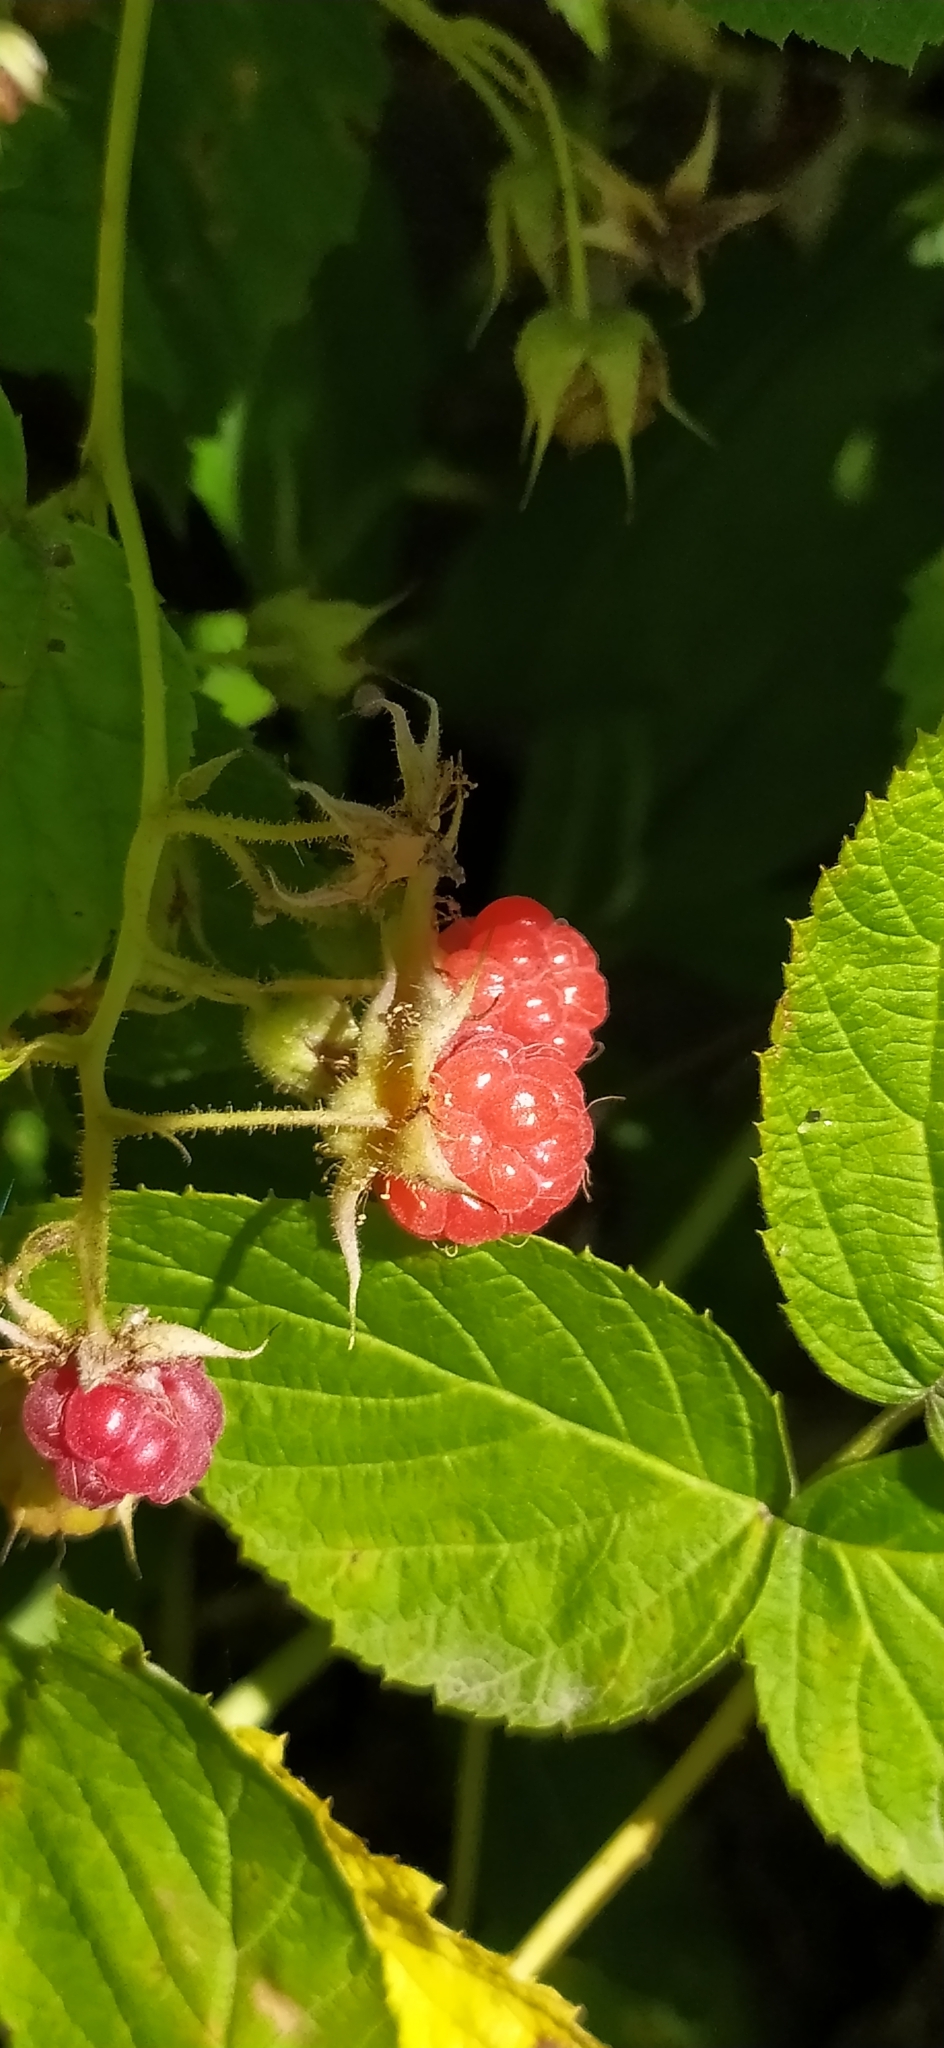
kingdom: Plantae
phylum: Tracheophyta
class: Magnoliopsida
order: Rosales
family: Rosaceae
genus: Rubus
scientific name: Rubus idaeus
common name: Raspberry
